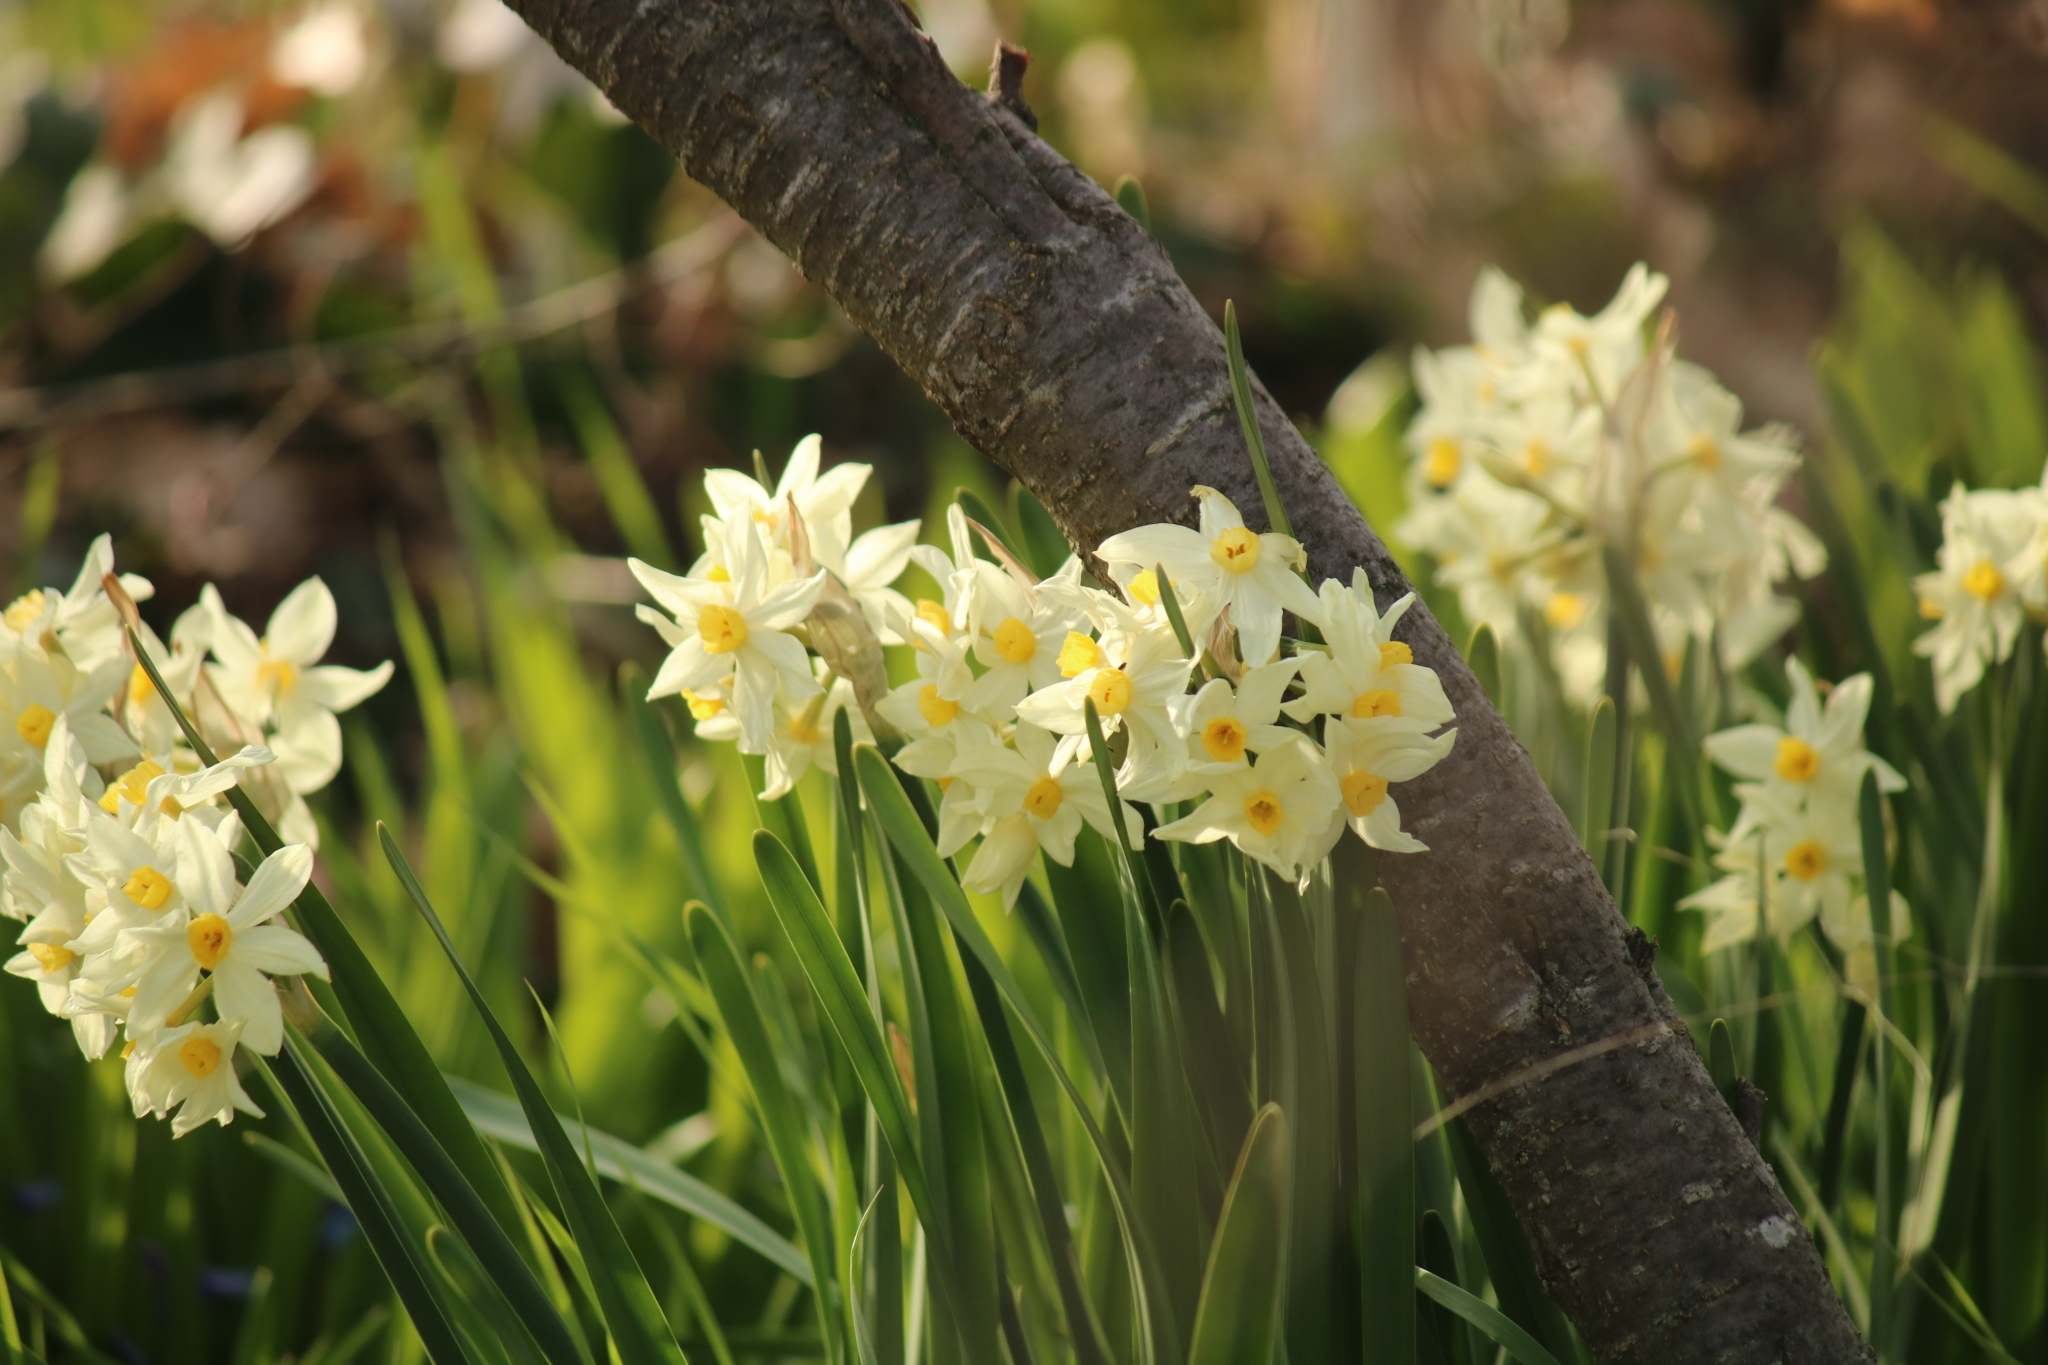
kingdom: Plantae
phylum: Tracheophyta
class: Liliopsida
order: Asparagales
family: Amaryllidaceae
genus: Narcissus
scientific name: Narcissus tazetta
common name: Bunch-flowered daffodil
